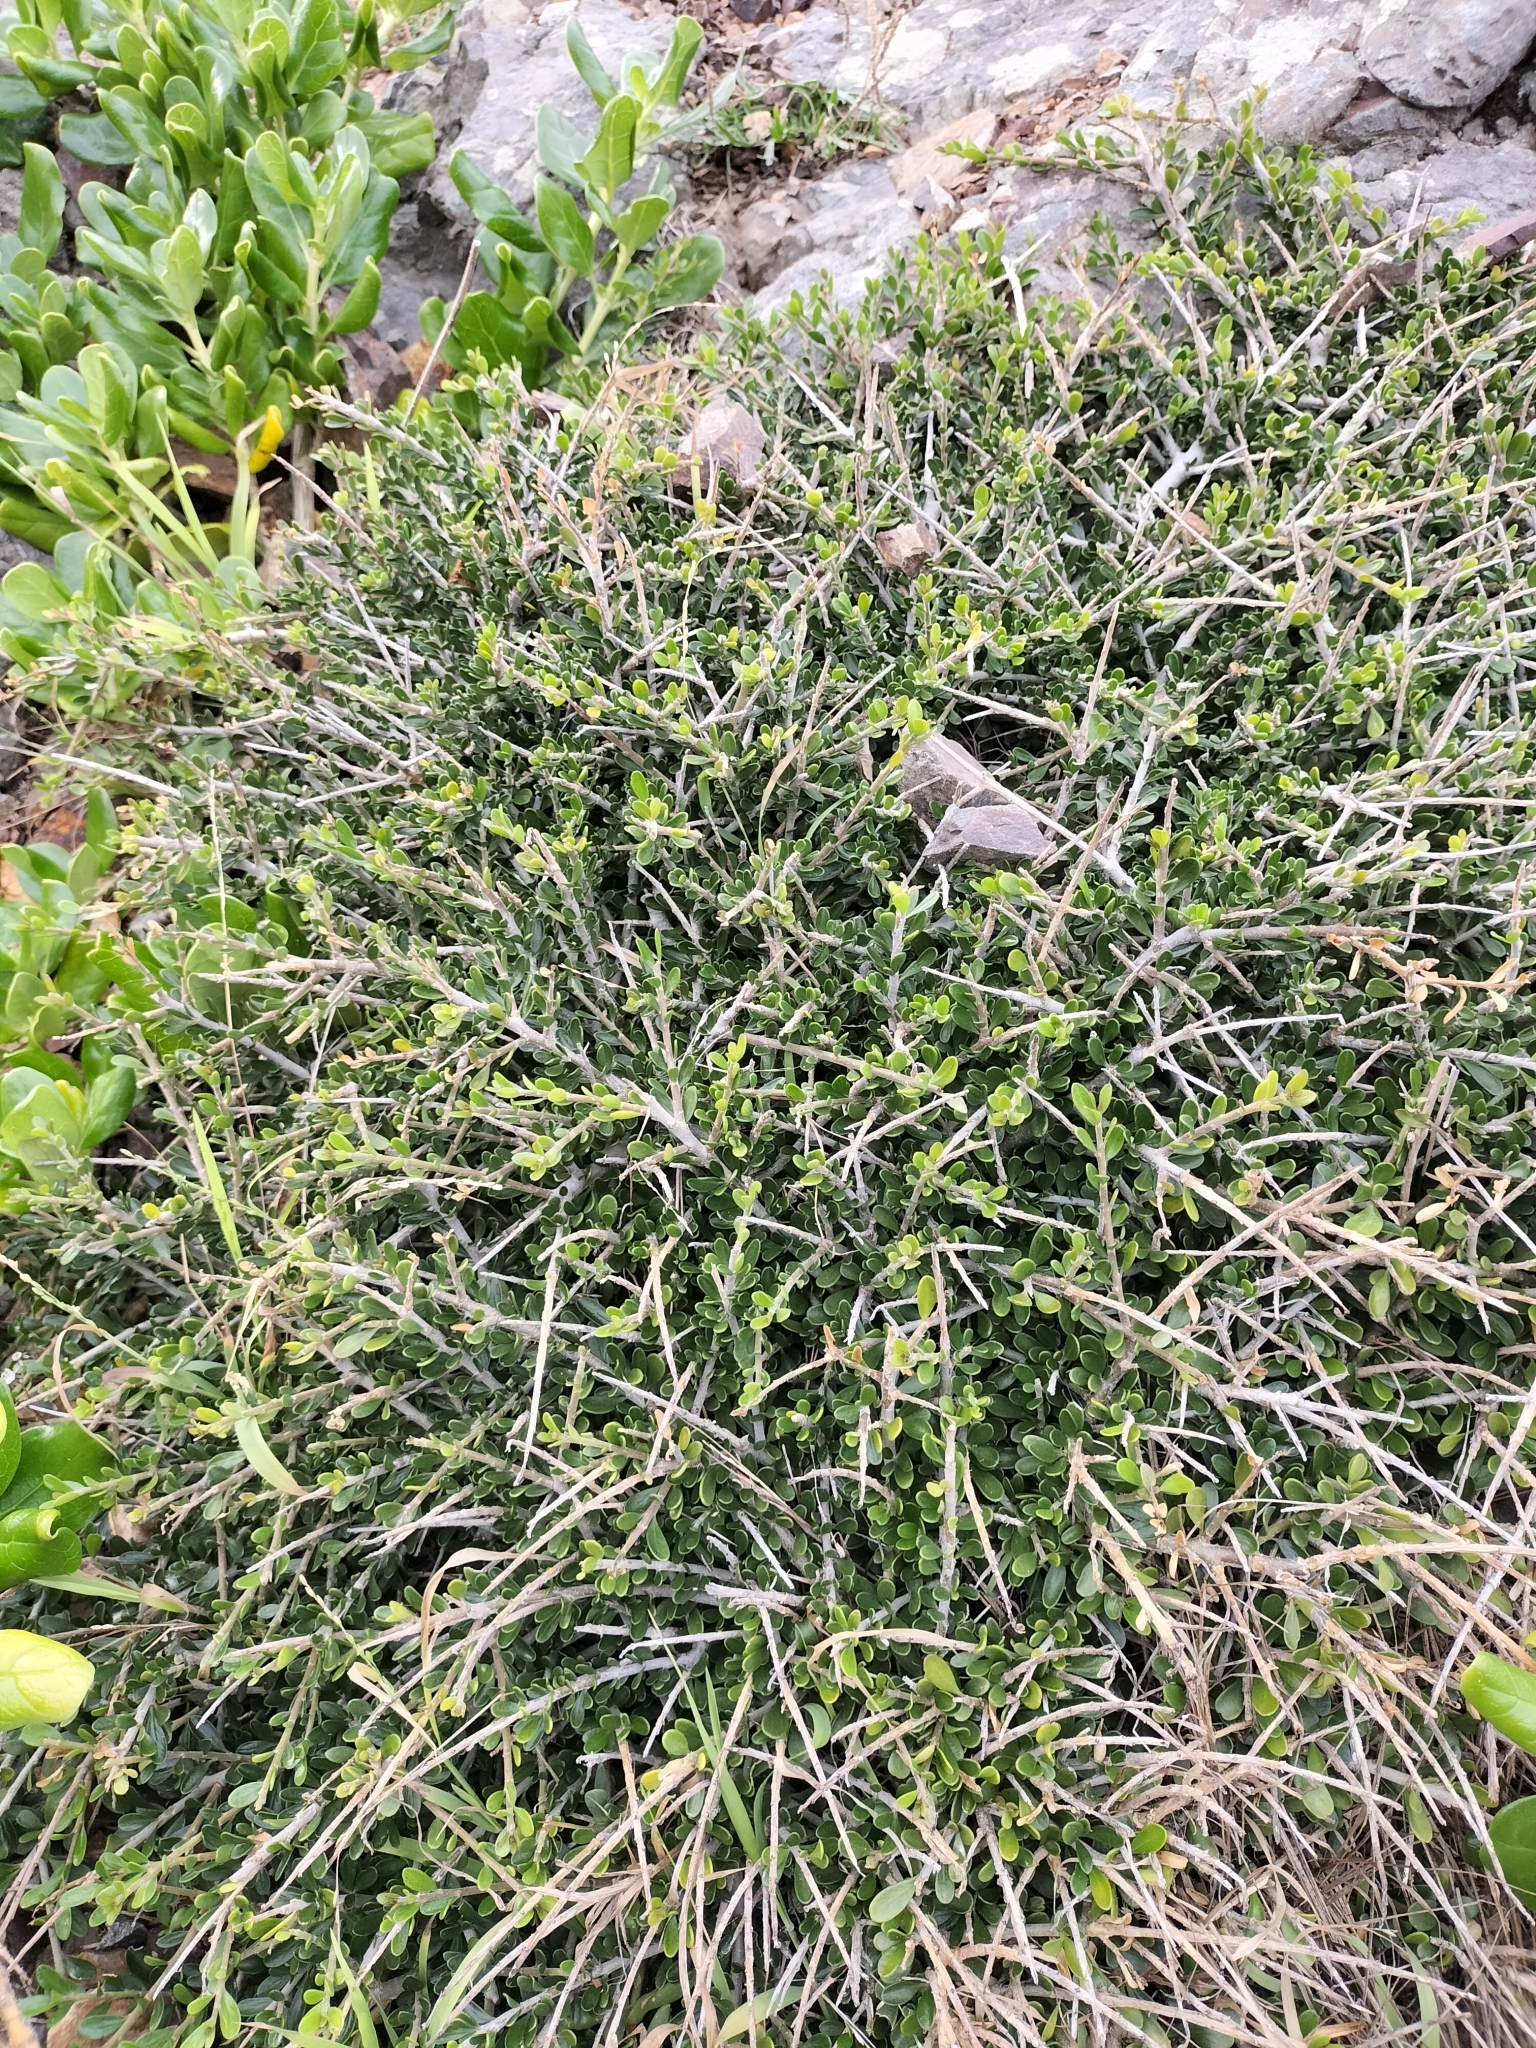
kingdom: Plantae
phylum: Tracheophyta
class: Magnoliopsida
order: Malpighiales
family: Violaceae
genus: Melicytus
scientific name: Melicytus crassifolius
